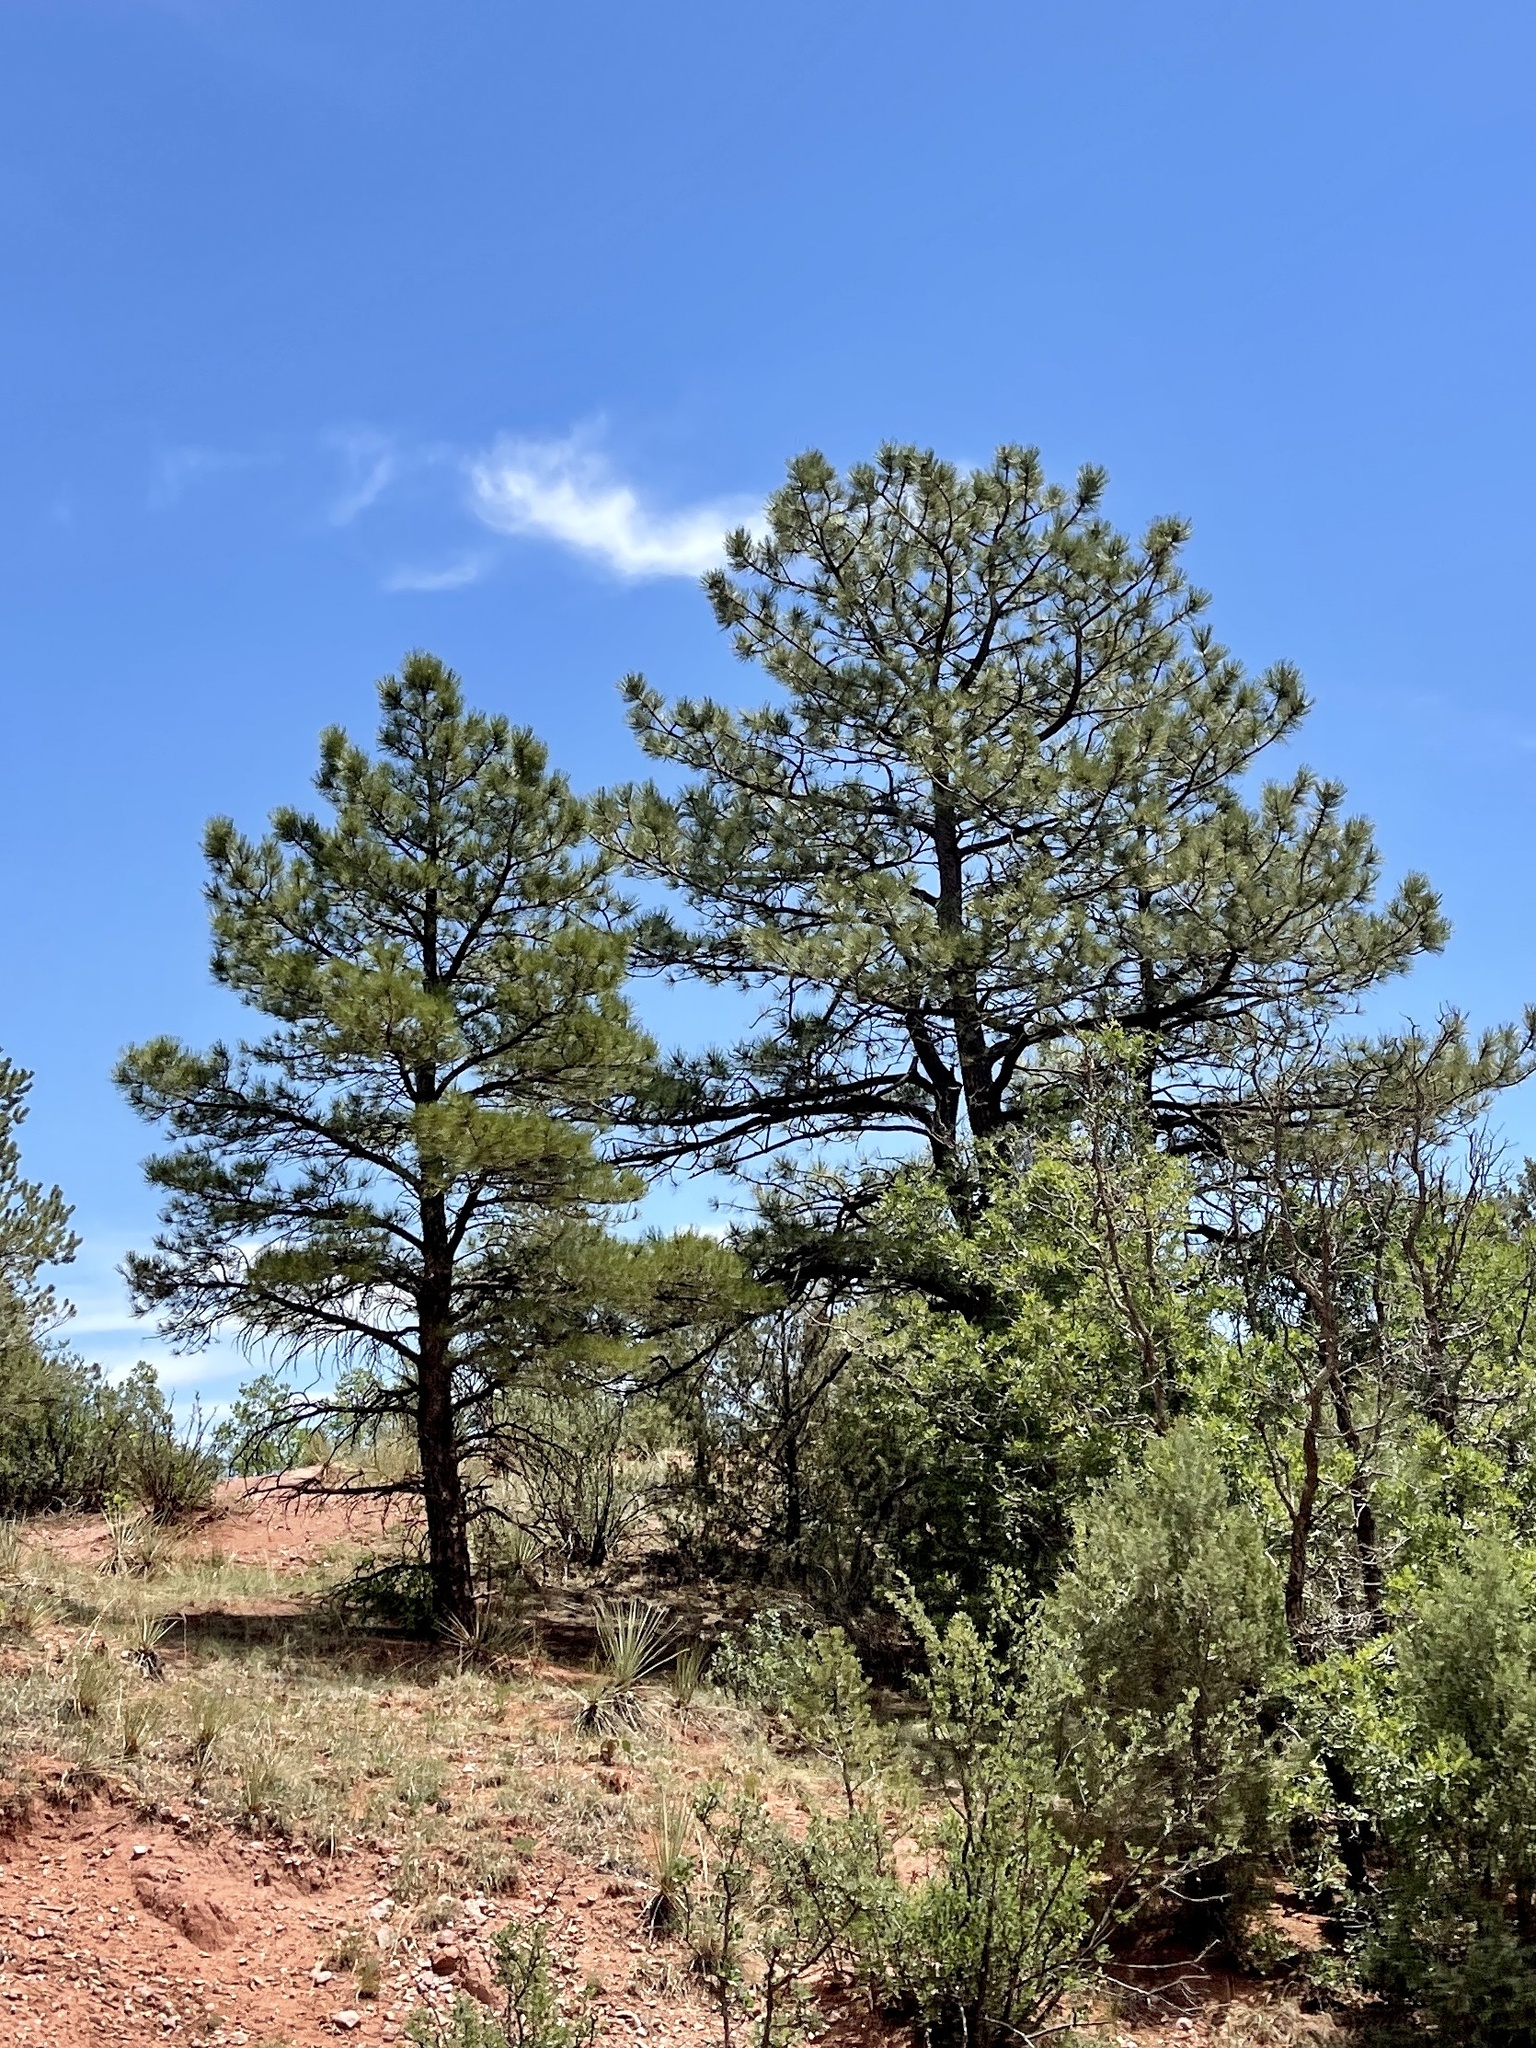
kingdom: Plantae
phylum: Tracheophyta
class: Pinopsida
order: Pinales
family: Pinaceae
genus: Pinus
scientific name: Pinus ponderosa
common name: Western yellow-pine
